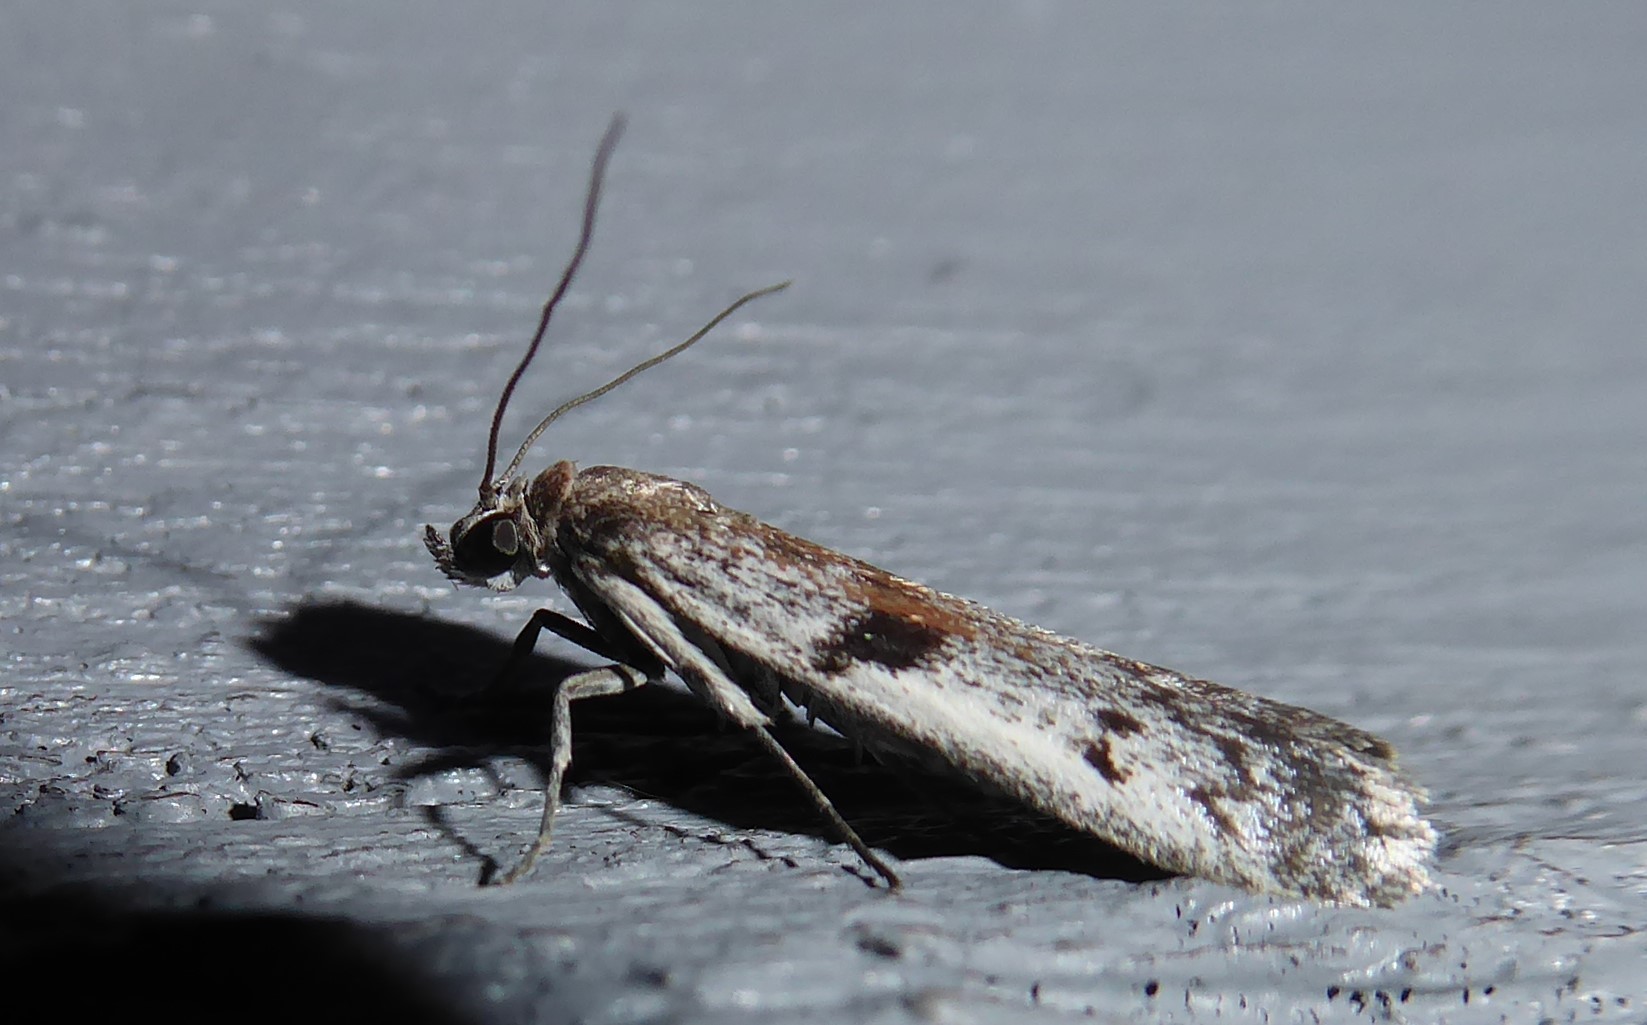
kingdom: Animalia
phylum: Arthropoda
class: Insecta
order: Lepidoptera
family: Pyralidae
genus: Patagoniodes
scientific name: Patagoniodes farinaria
